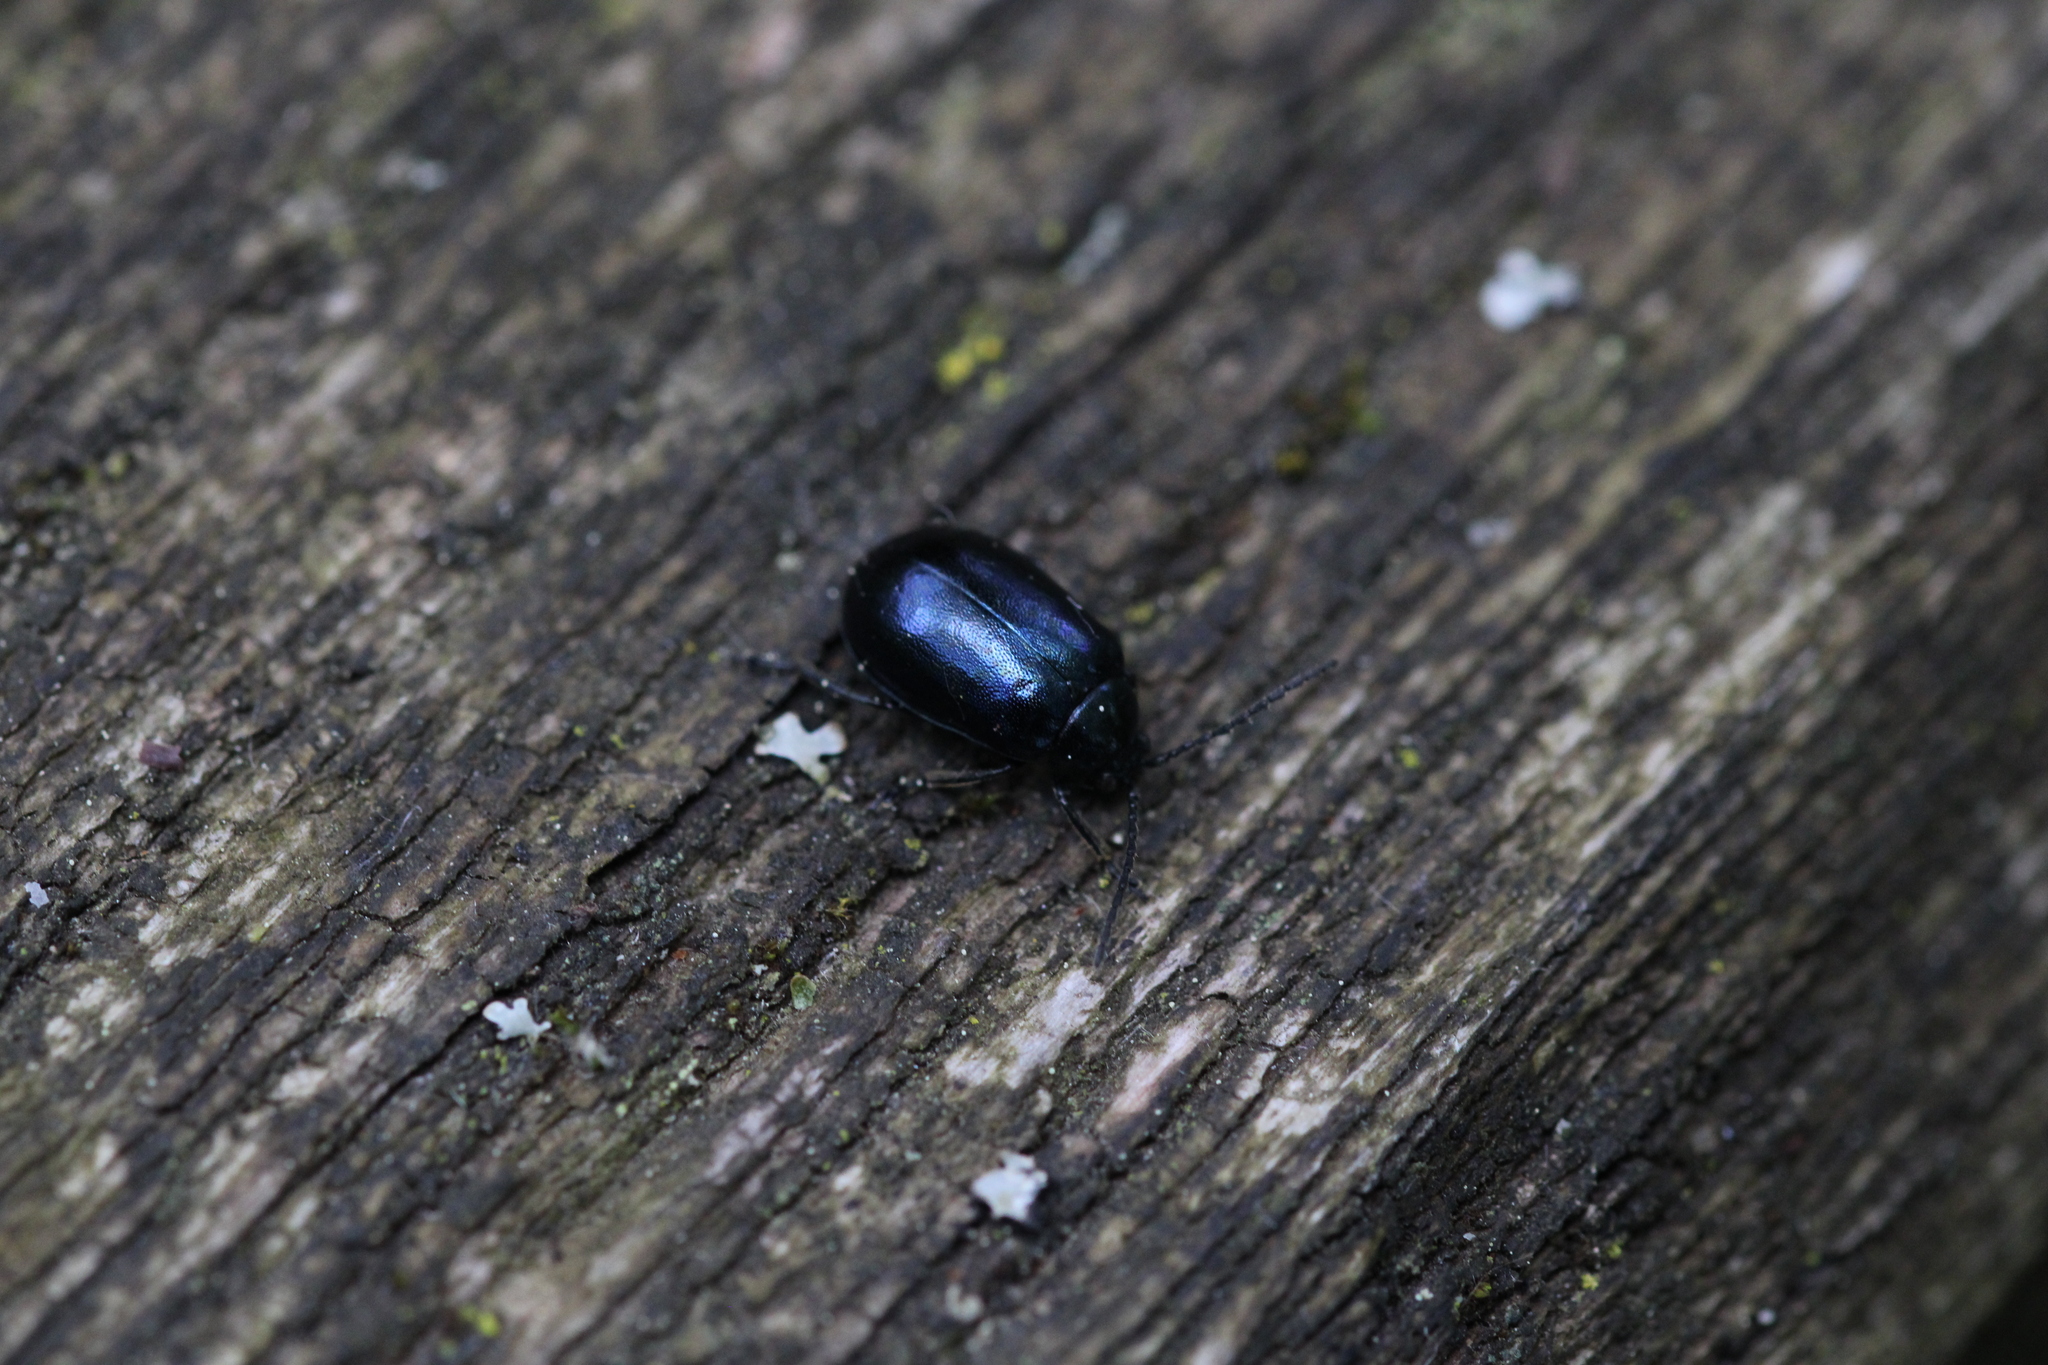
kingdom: Animalia
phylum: Arthropoda
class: Insecta
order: Coleoptera
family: Chrysomelidae
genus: Agelastica
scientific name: Agelastica alni
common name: Alder leaf beetle
